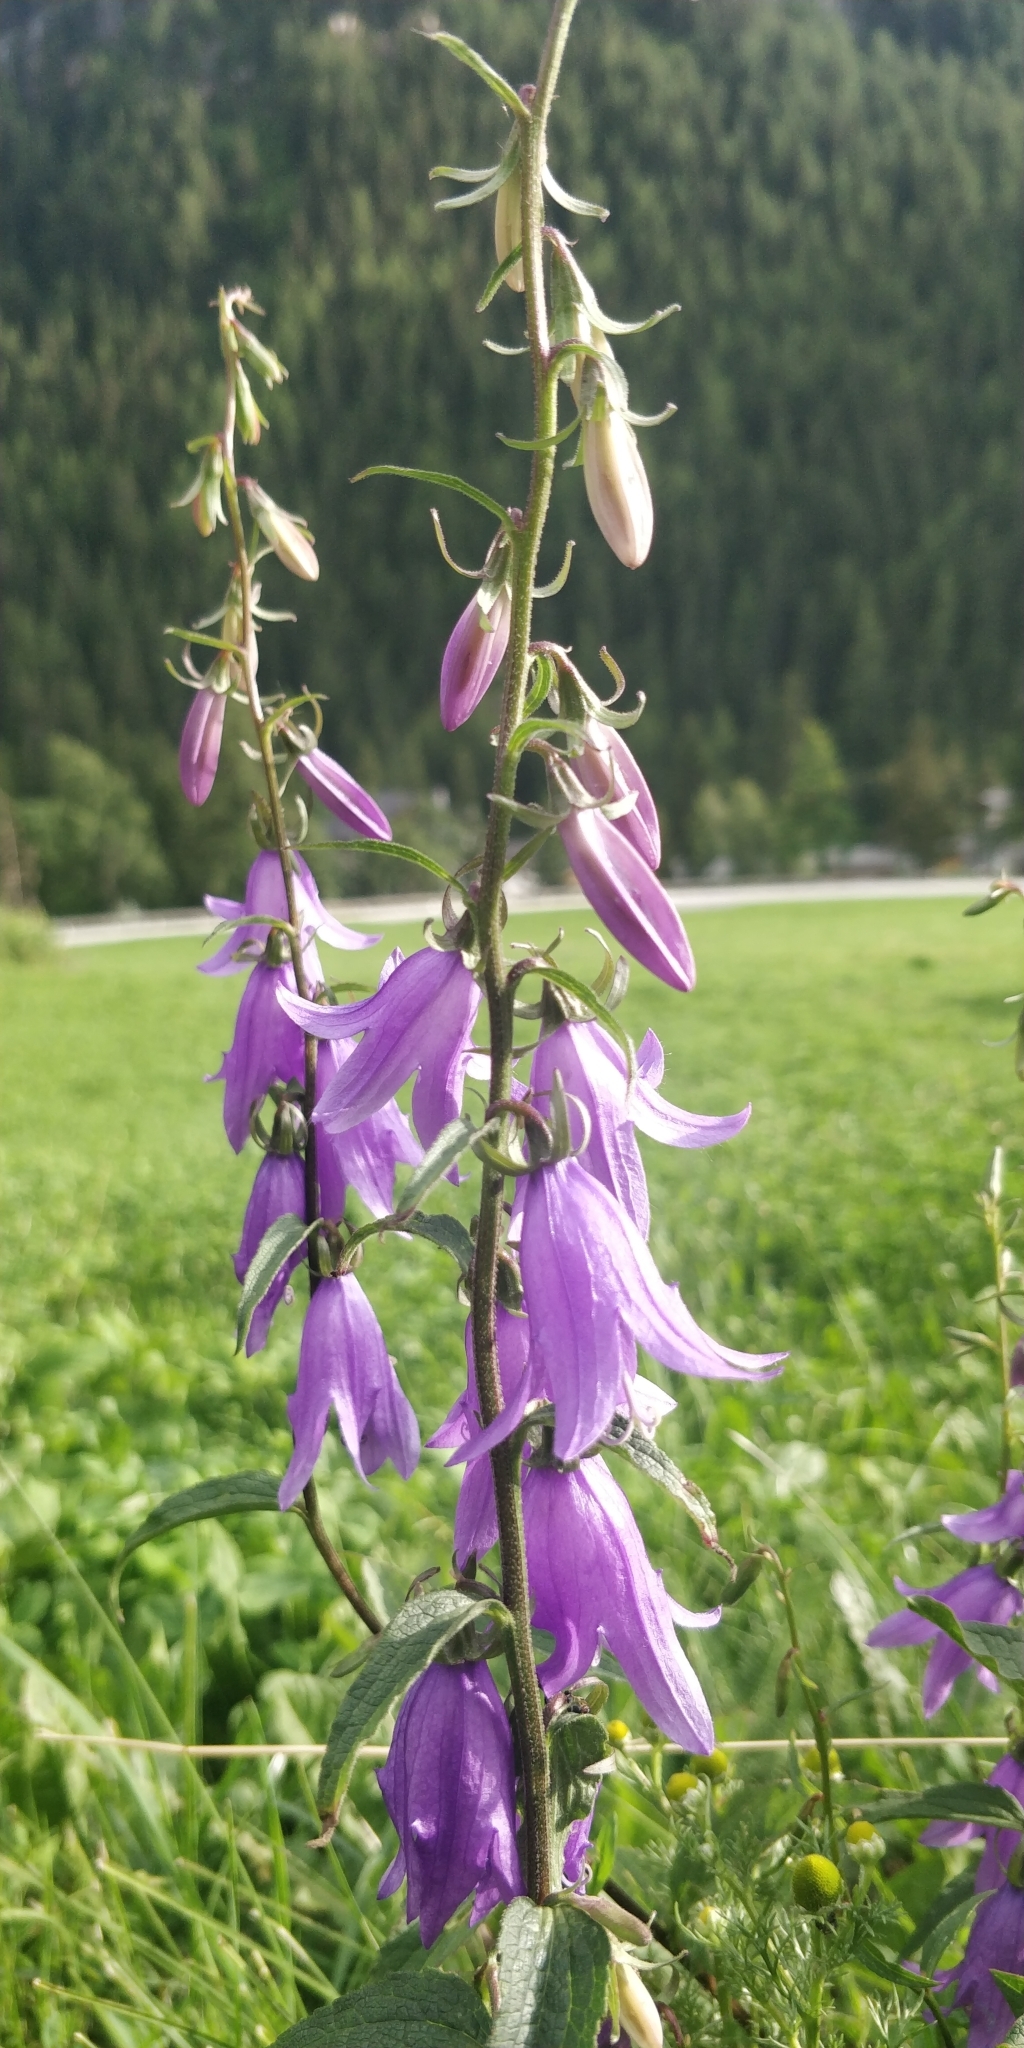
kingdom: Plantae
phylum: Tracheophyta
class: Magnoliopsida
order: Asterales
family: Campanulaceae
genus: Campanula
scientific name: Campanula rapunculoides
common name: Creeping bellflower
